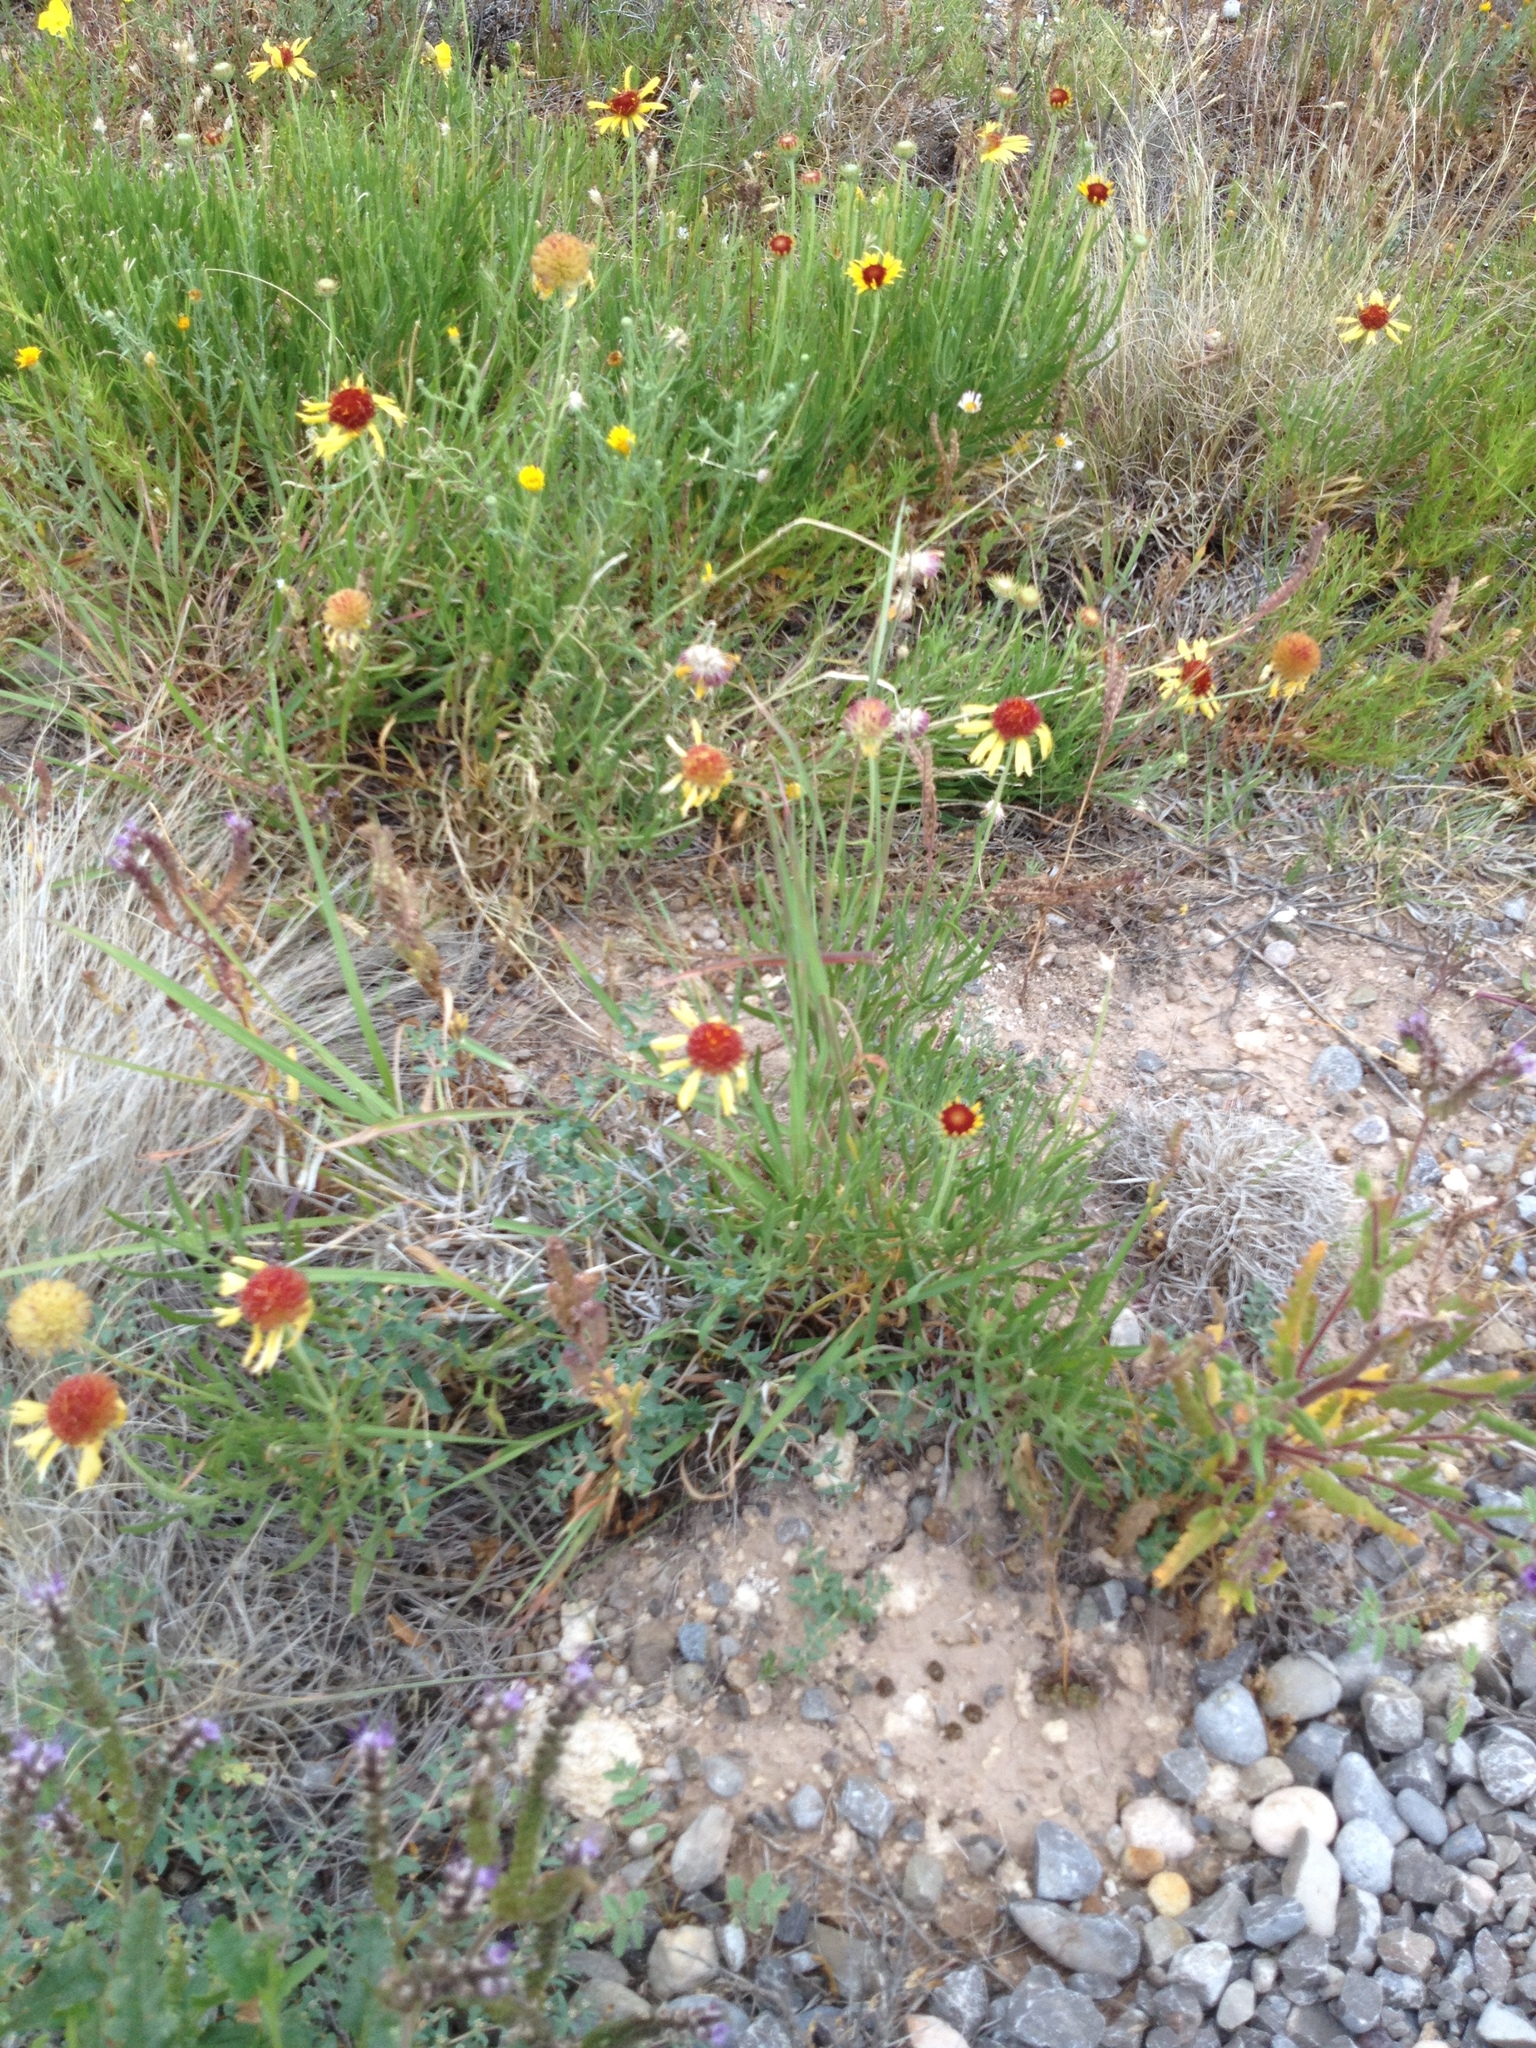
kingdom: Plantae
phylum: Tracheophyta
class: Magnoliopsida
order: Asterales
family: Asteraceae
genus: Gaillardia
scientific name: Gaillardia pinnatifida
